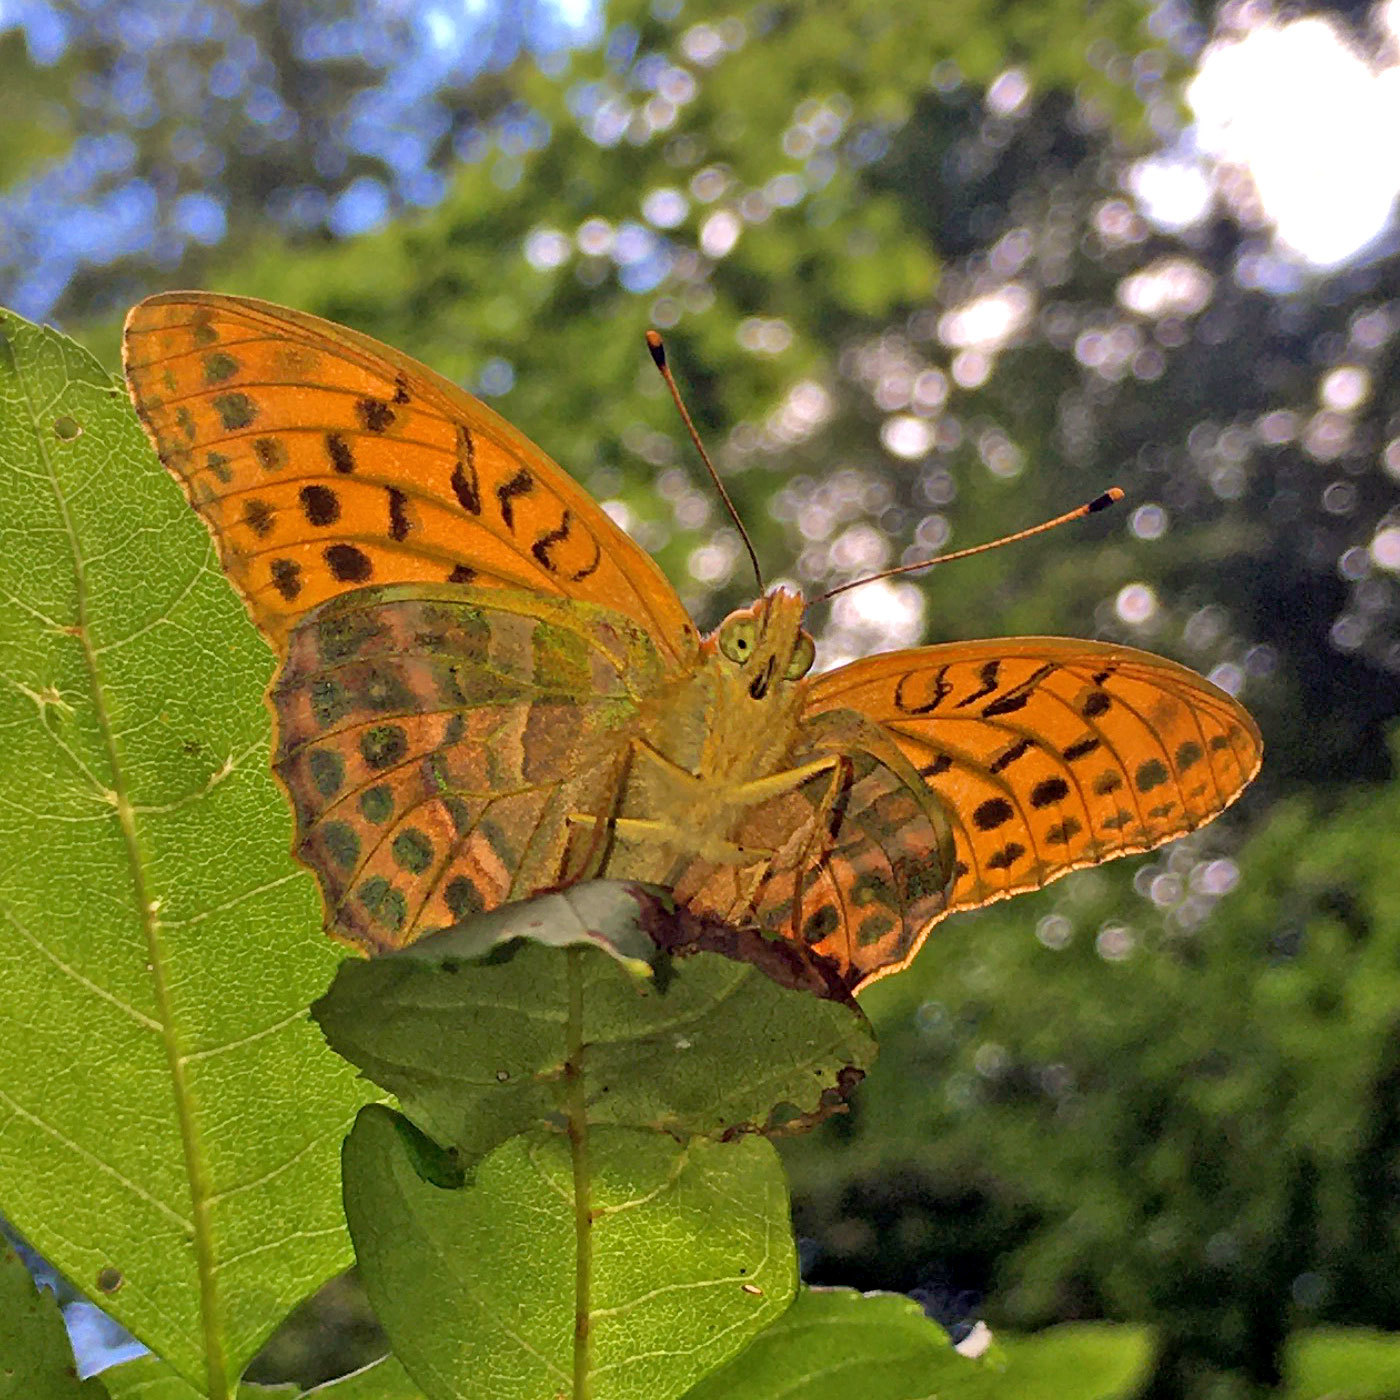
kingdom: Animalia
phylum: Arthropoda
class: Insecta
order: Lepidoptera
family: Nymphalidae
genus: Argynnis
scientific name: Argynnis paphia
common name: Silver-washed fritillary
